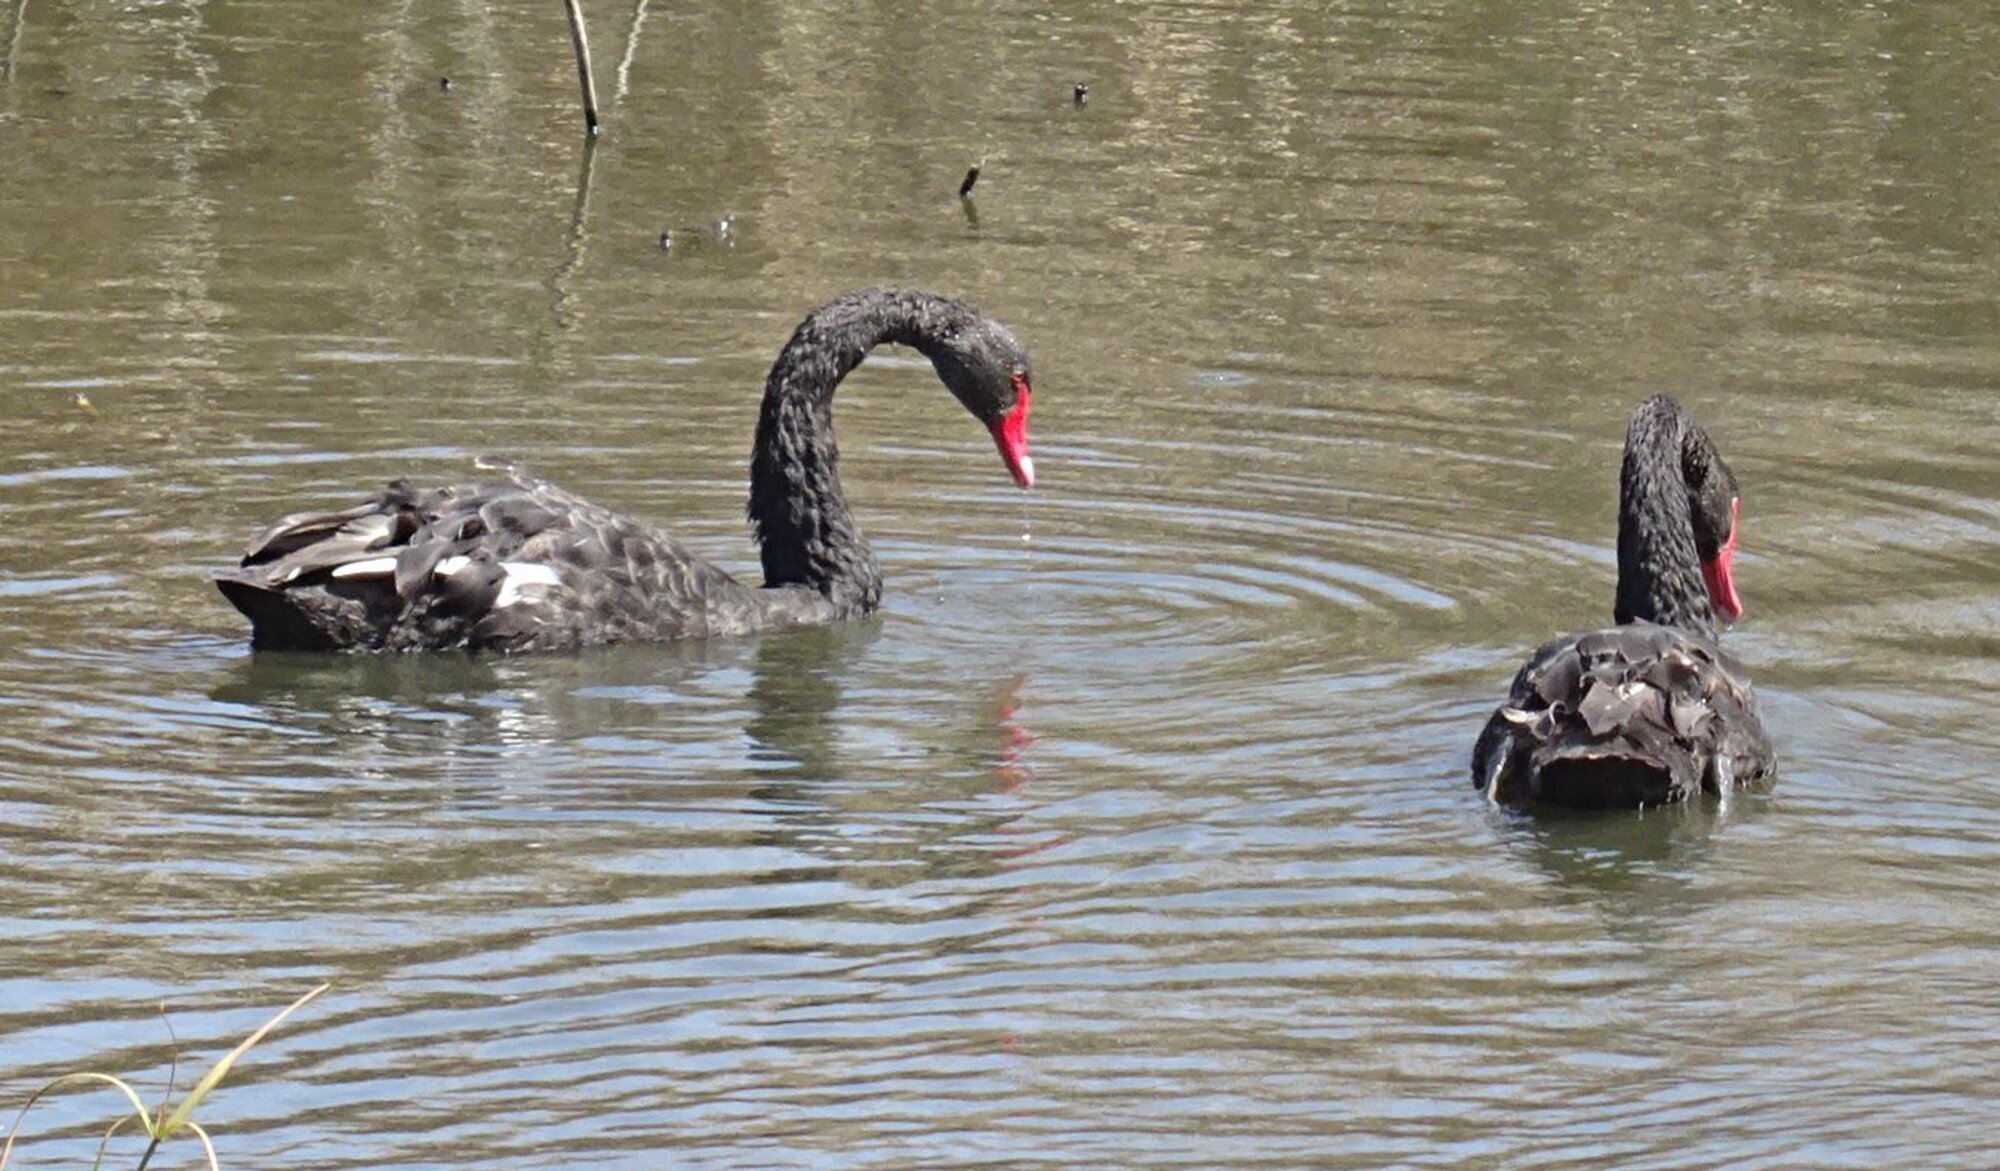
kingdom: Animalia
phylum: Chordata
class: Aves
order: Anseriformes
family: Anatidae
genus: Cygnus
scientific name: Cygnus atratus
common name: Black swan
